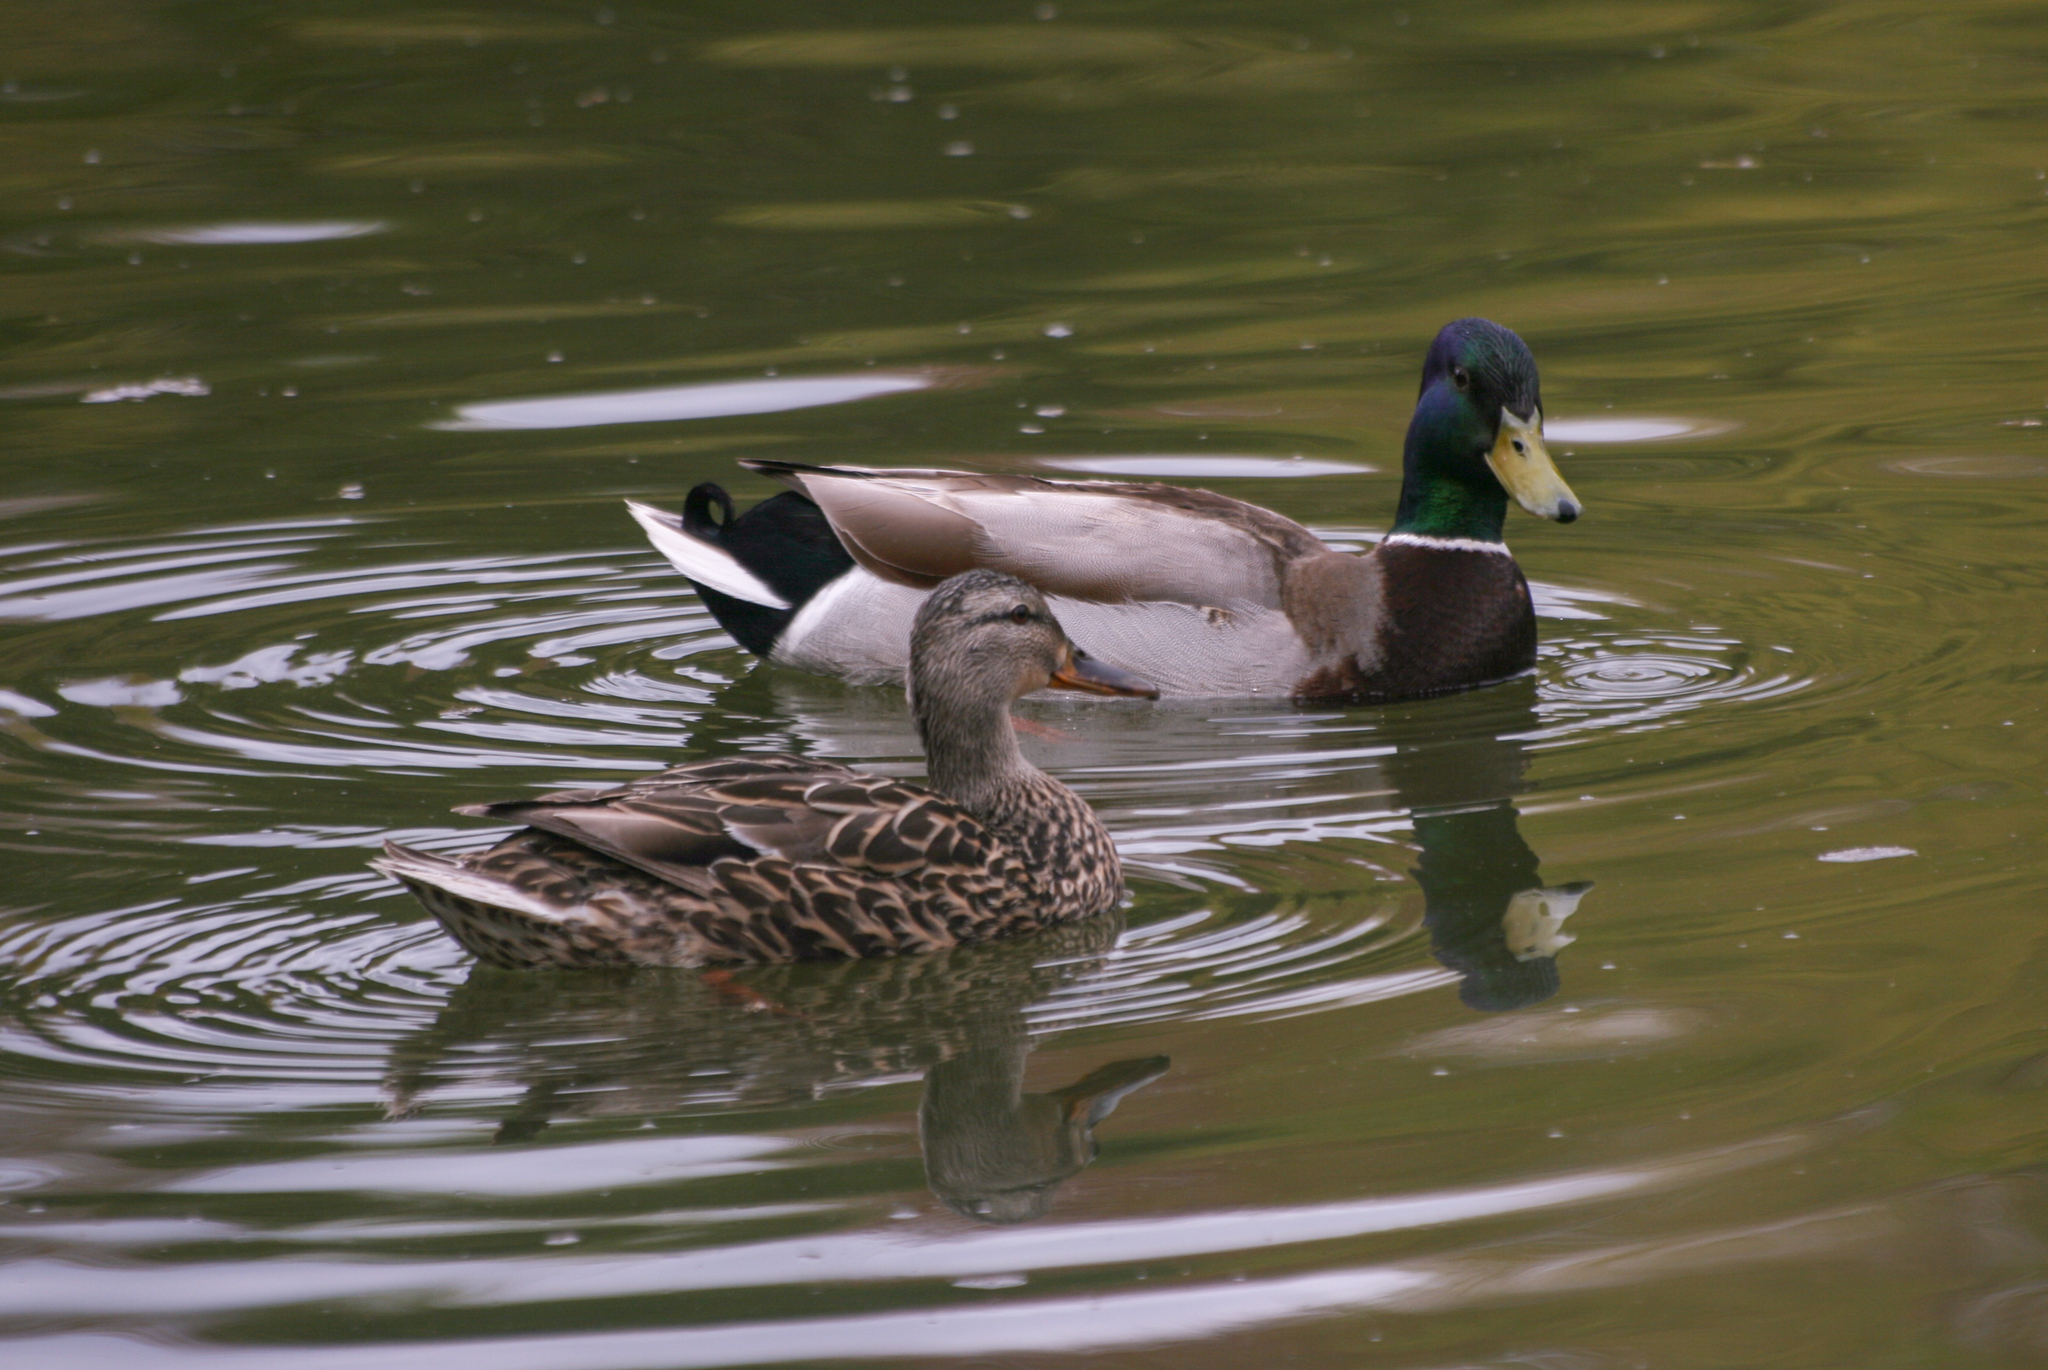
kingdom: Animalia
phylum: Chordata
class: Aves
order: Anseriformes
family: Anatidae
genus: Anas
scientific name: Anas platyrhynchos
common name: Mallard
